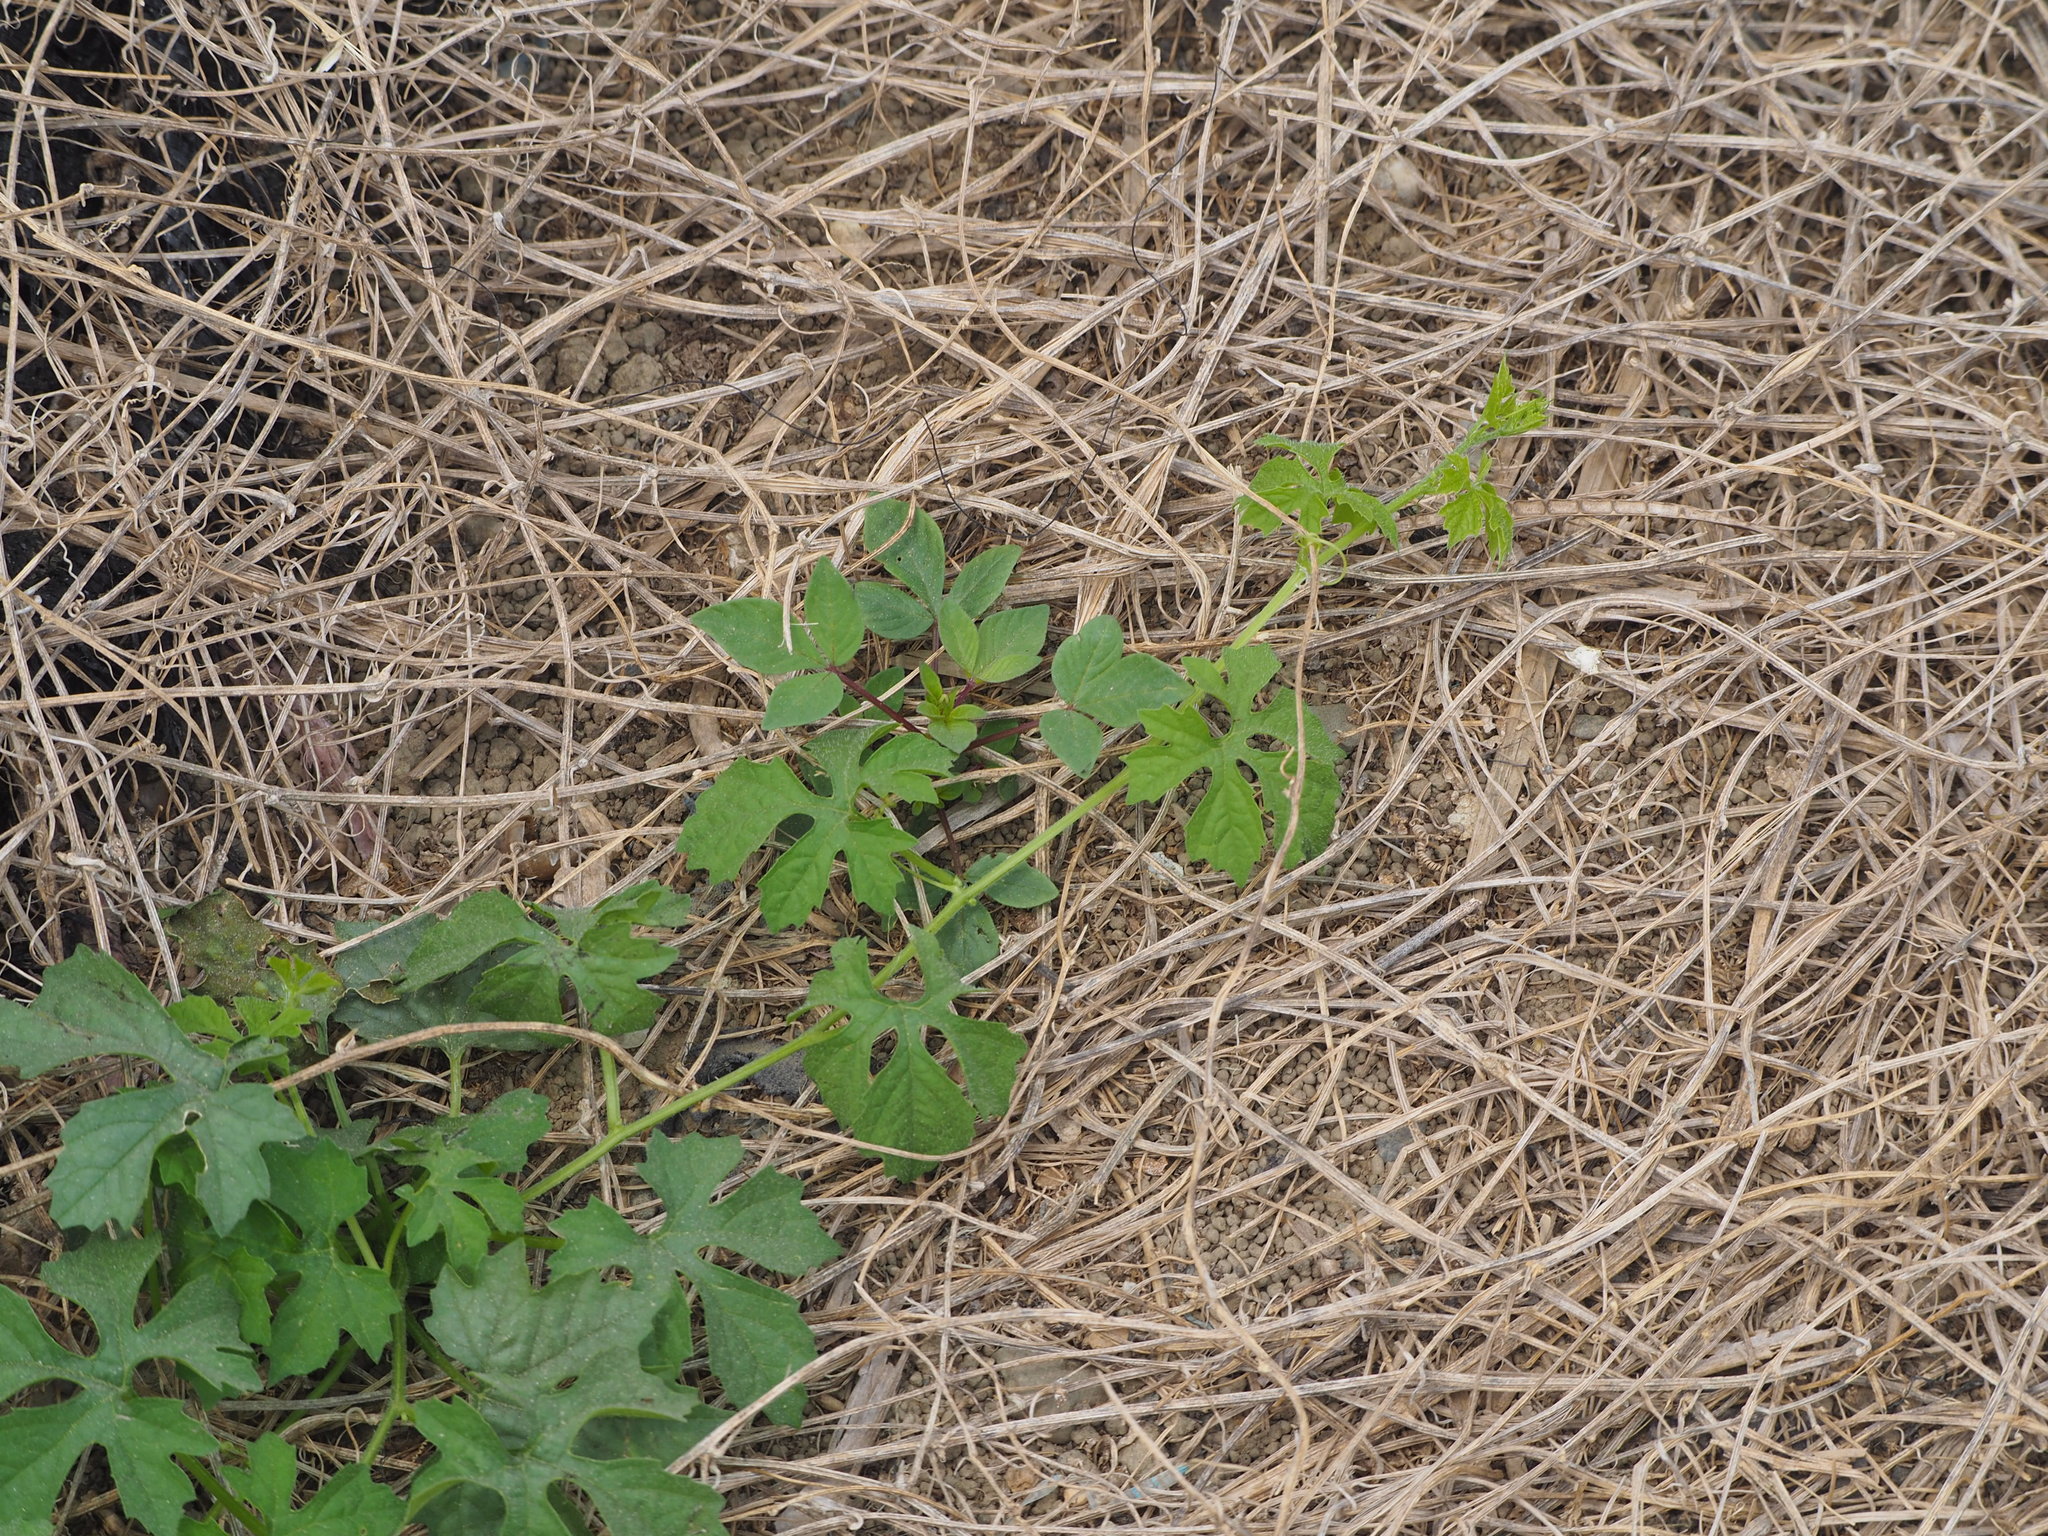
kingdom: Plantae
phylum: Tracheophyta
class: Magnoliopsida
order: Cucurbitales
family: Cucurbitaceae
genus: Momordica
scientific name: Momordica charantia
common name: Balsampear
